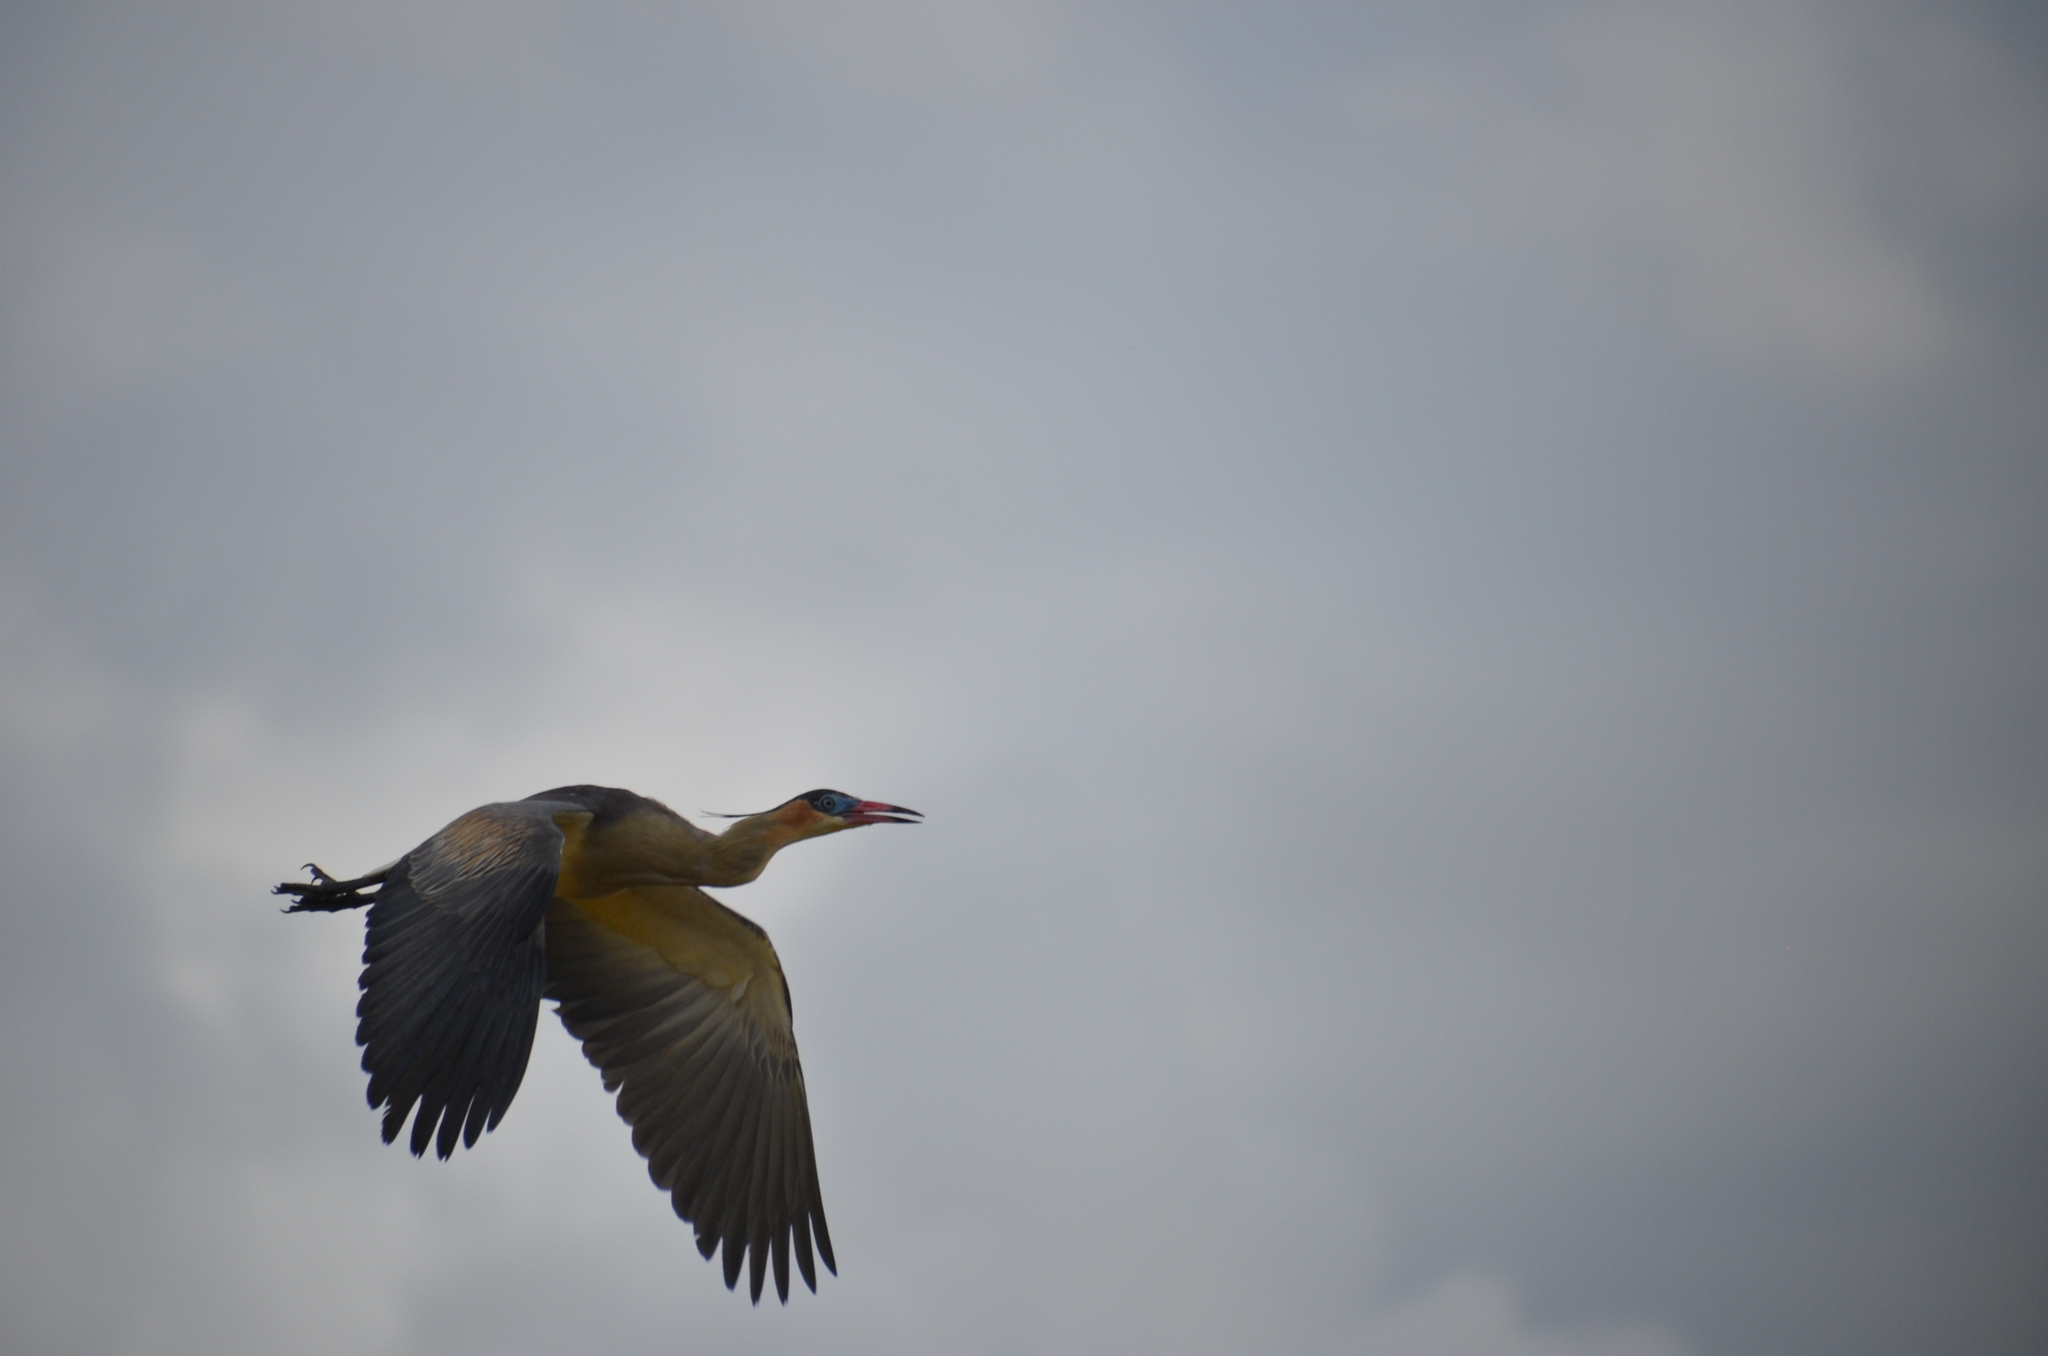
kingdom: Animalia
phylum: Chordata
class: Aves
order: Pelecaniformes
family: Ardeidae
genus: Syrigma
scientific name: Syrigma sibilatrix
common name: Whistling heron
